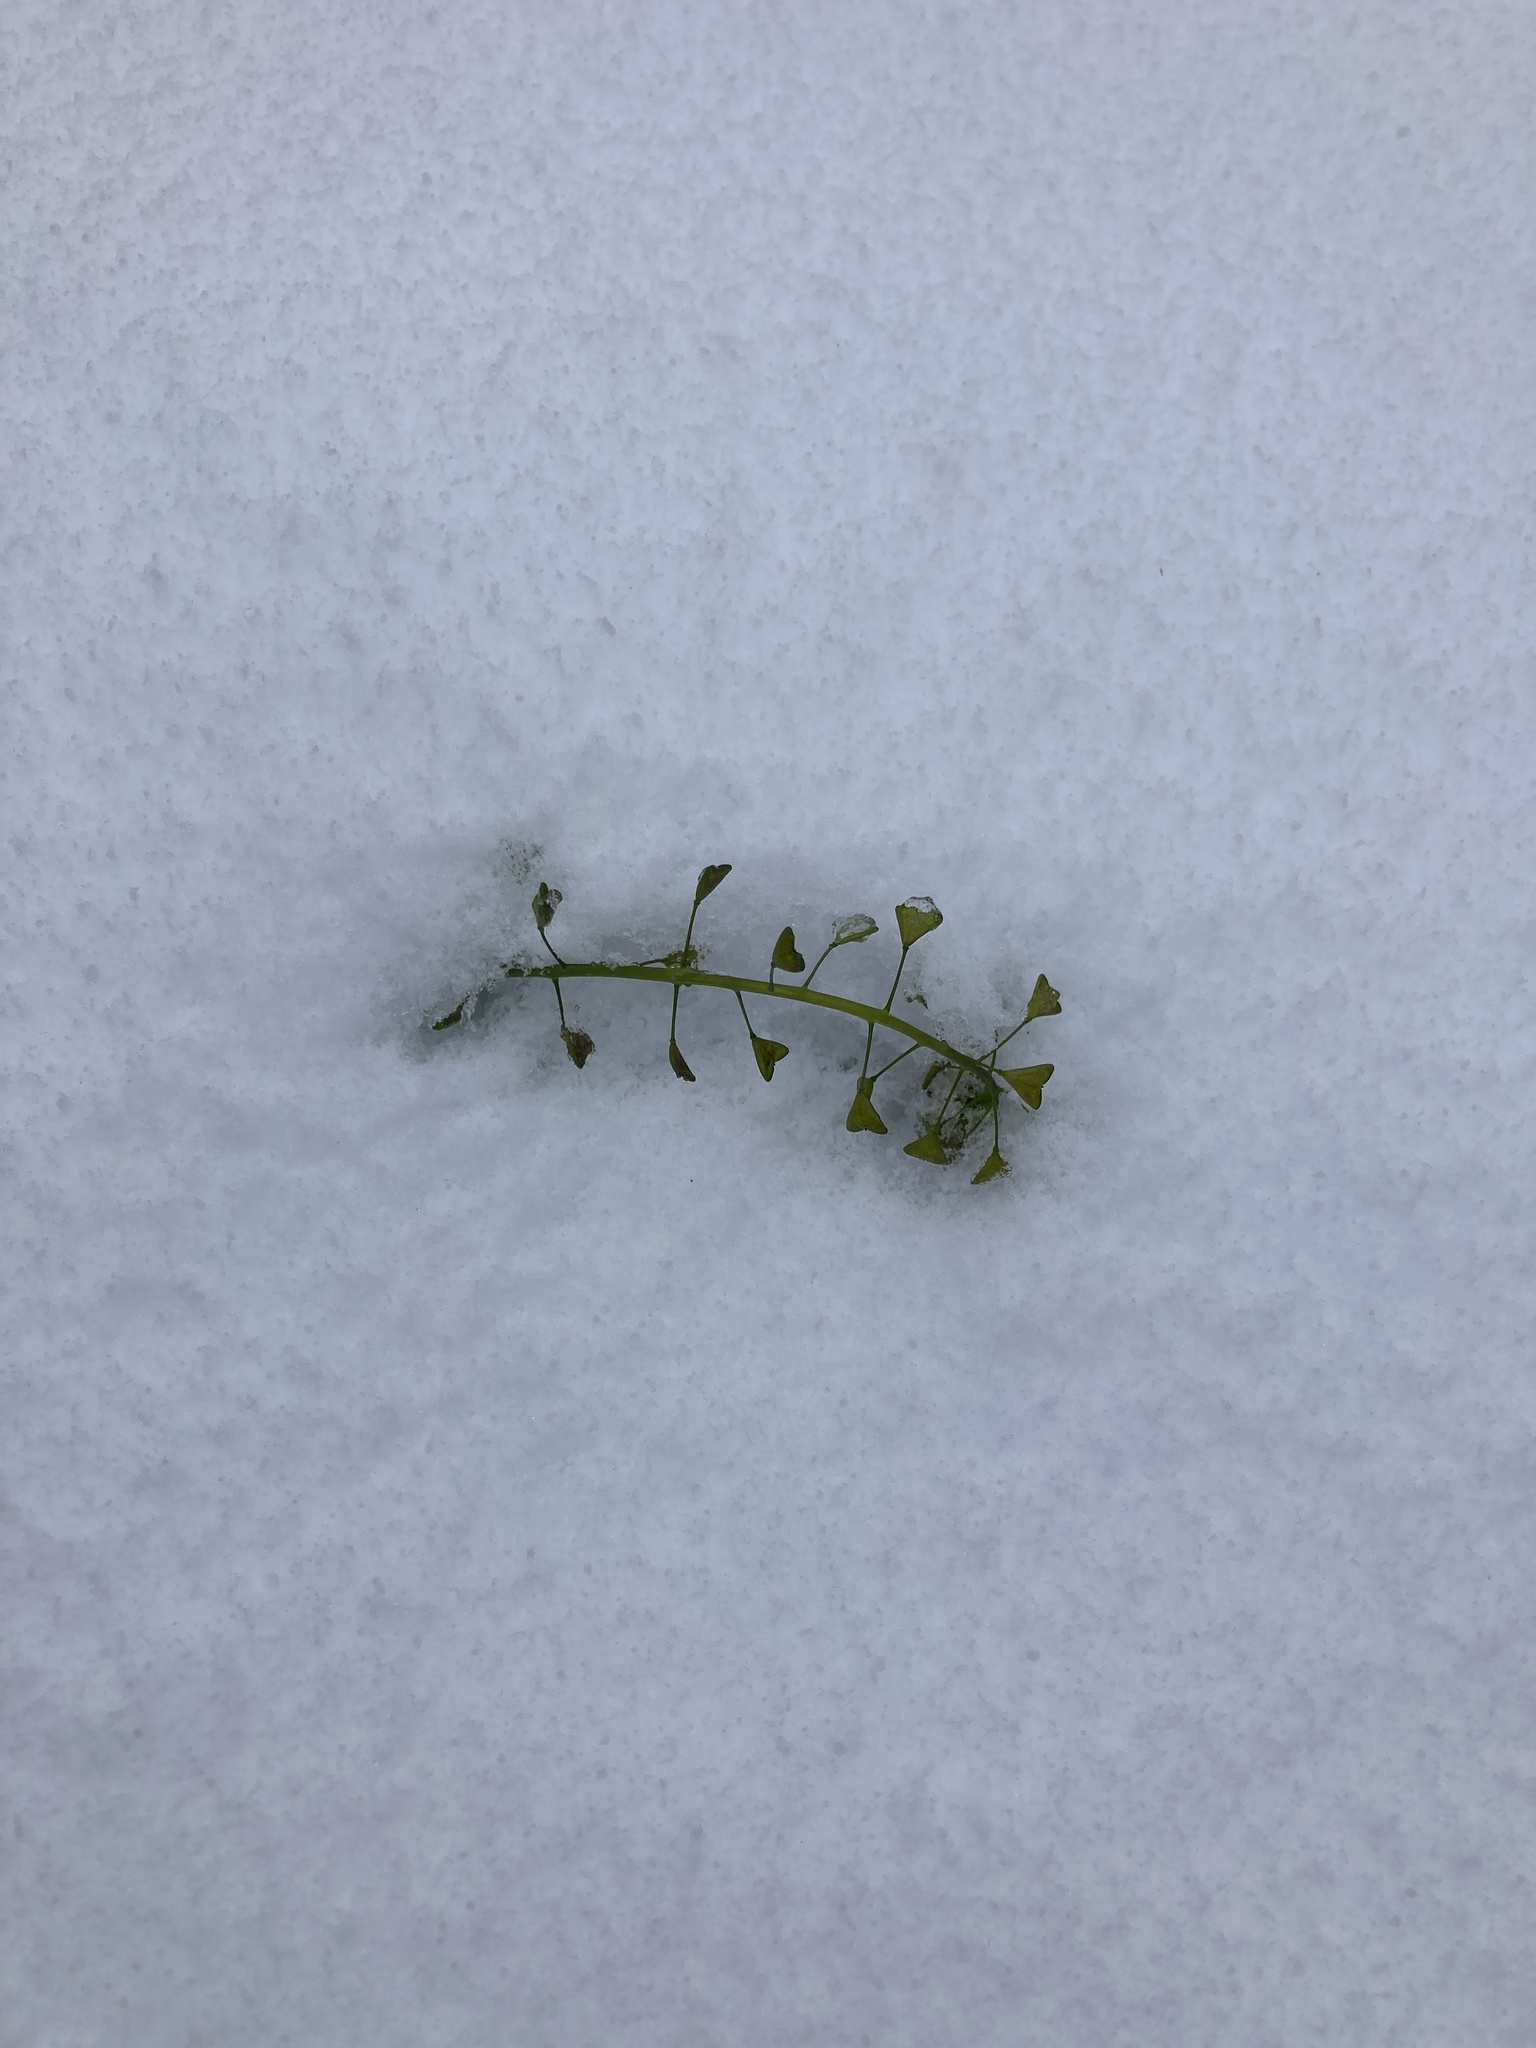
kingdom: Plantae
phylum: Tracheophyta
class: Magnoliopsida
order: Brassicales
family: Brassicaceae
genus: Capsella
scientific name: Capsella bursa-pastoris
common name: Shepherd's purse
